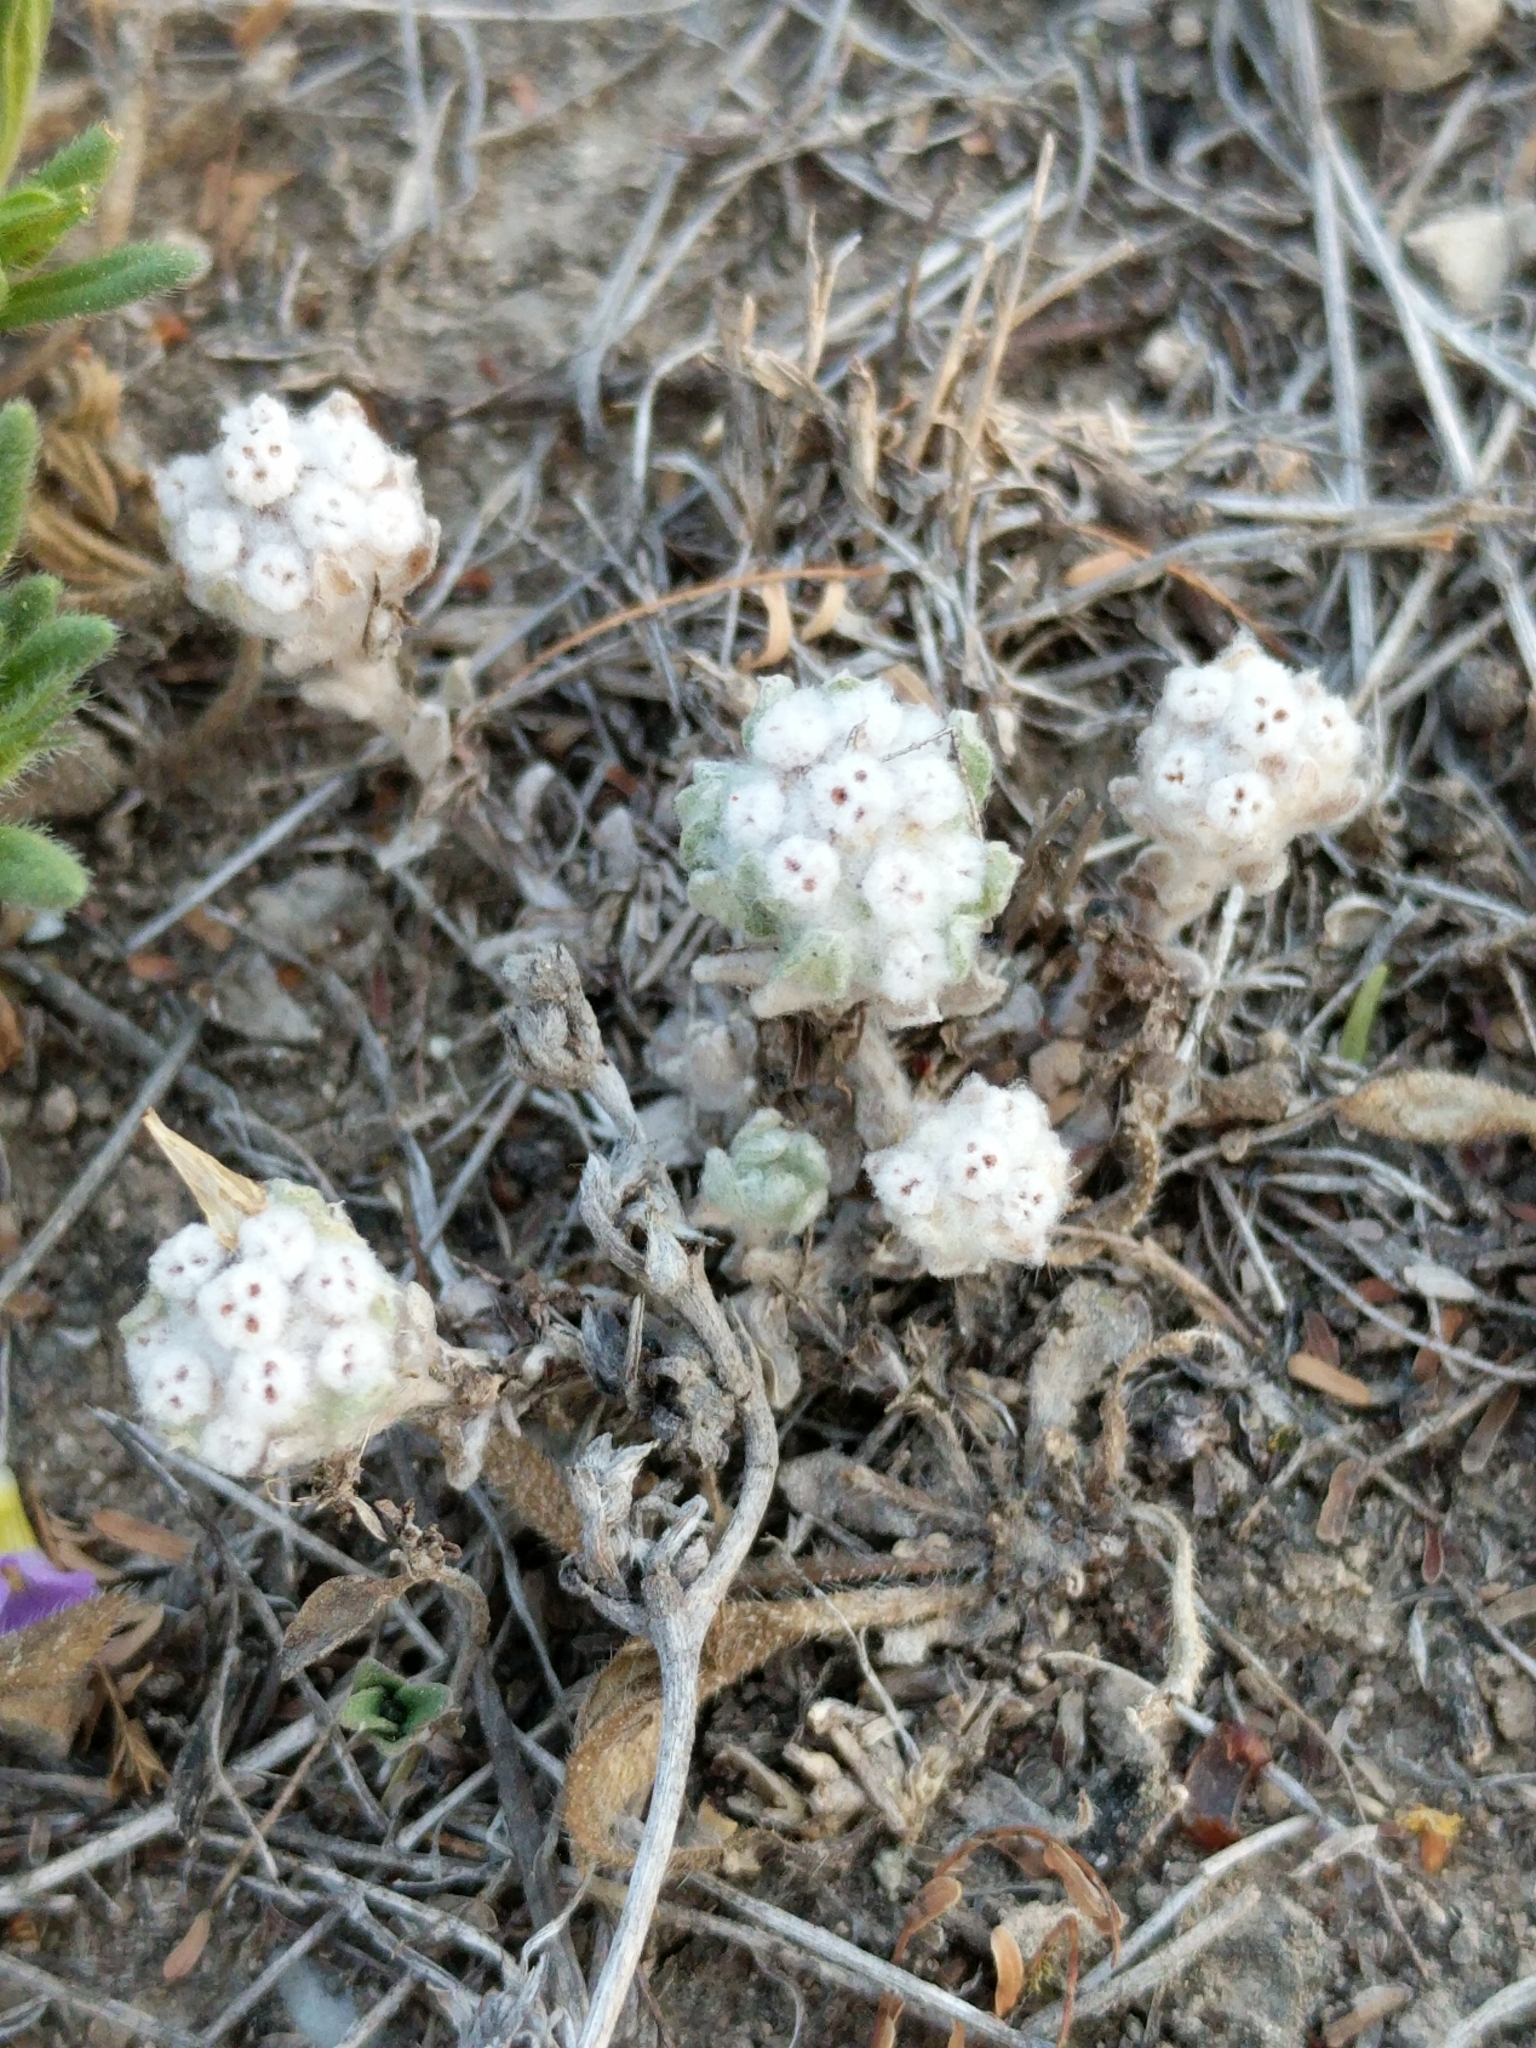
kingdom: Plantae
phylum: Tracheophyta
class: Magnoliopsida
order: Asterales
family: Asteraceae
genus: Diaperia
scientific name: Diaperia verna
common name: Many-stem rabbit-tobacco
